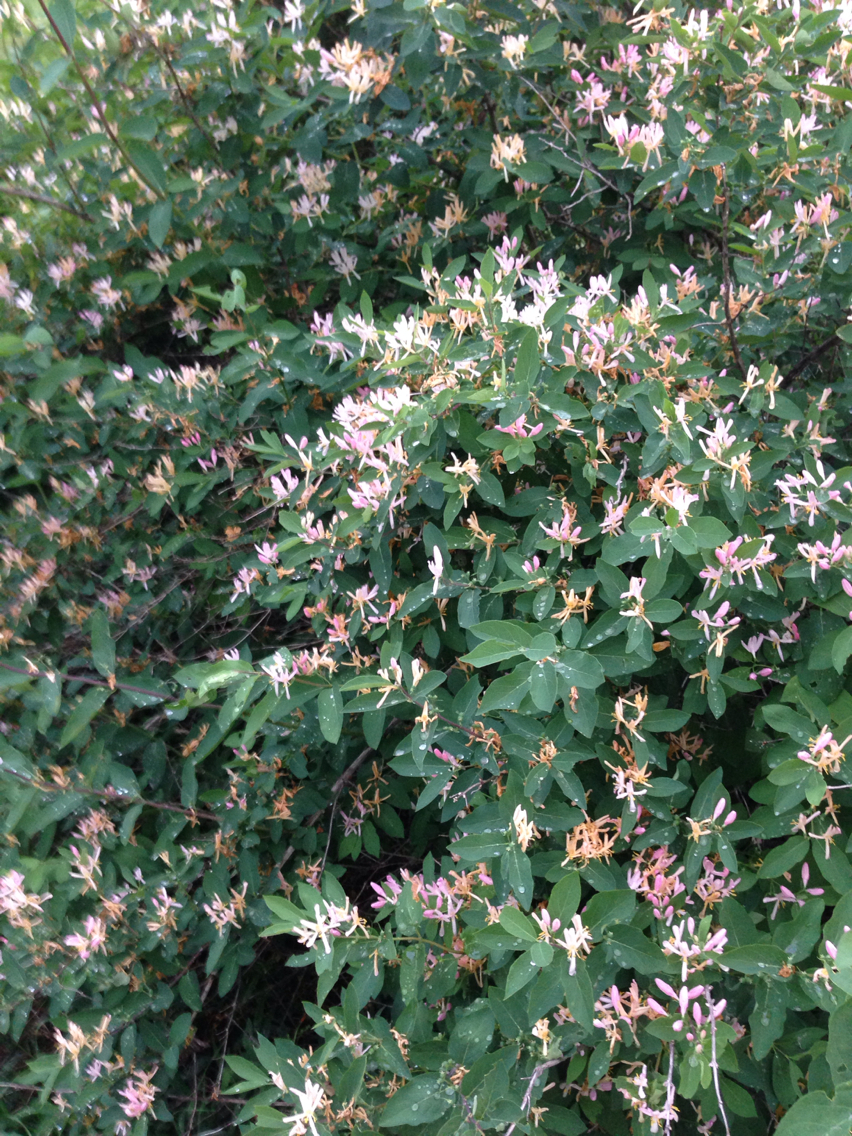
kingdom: Plantae
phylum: Tracheophyta
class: Magnoliopsida
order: Dipsacales
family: Caprifoliaceae
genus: Lonicera
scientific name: Lonicera tatarica
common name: Tatarian honeysuckle
